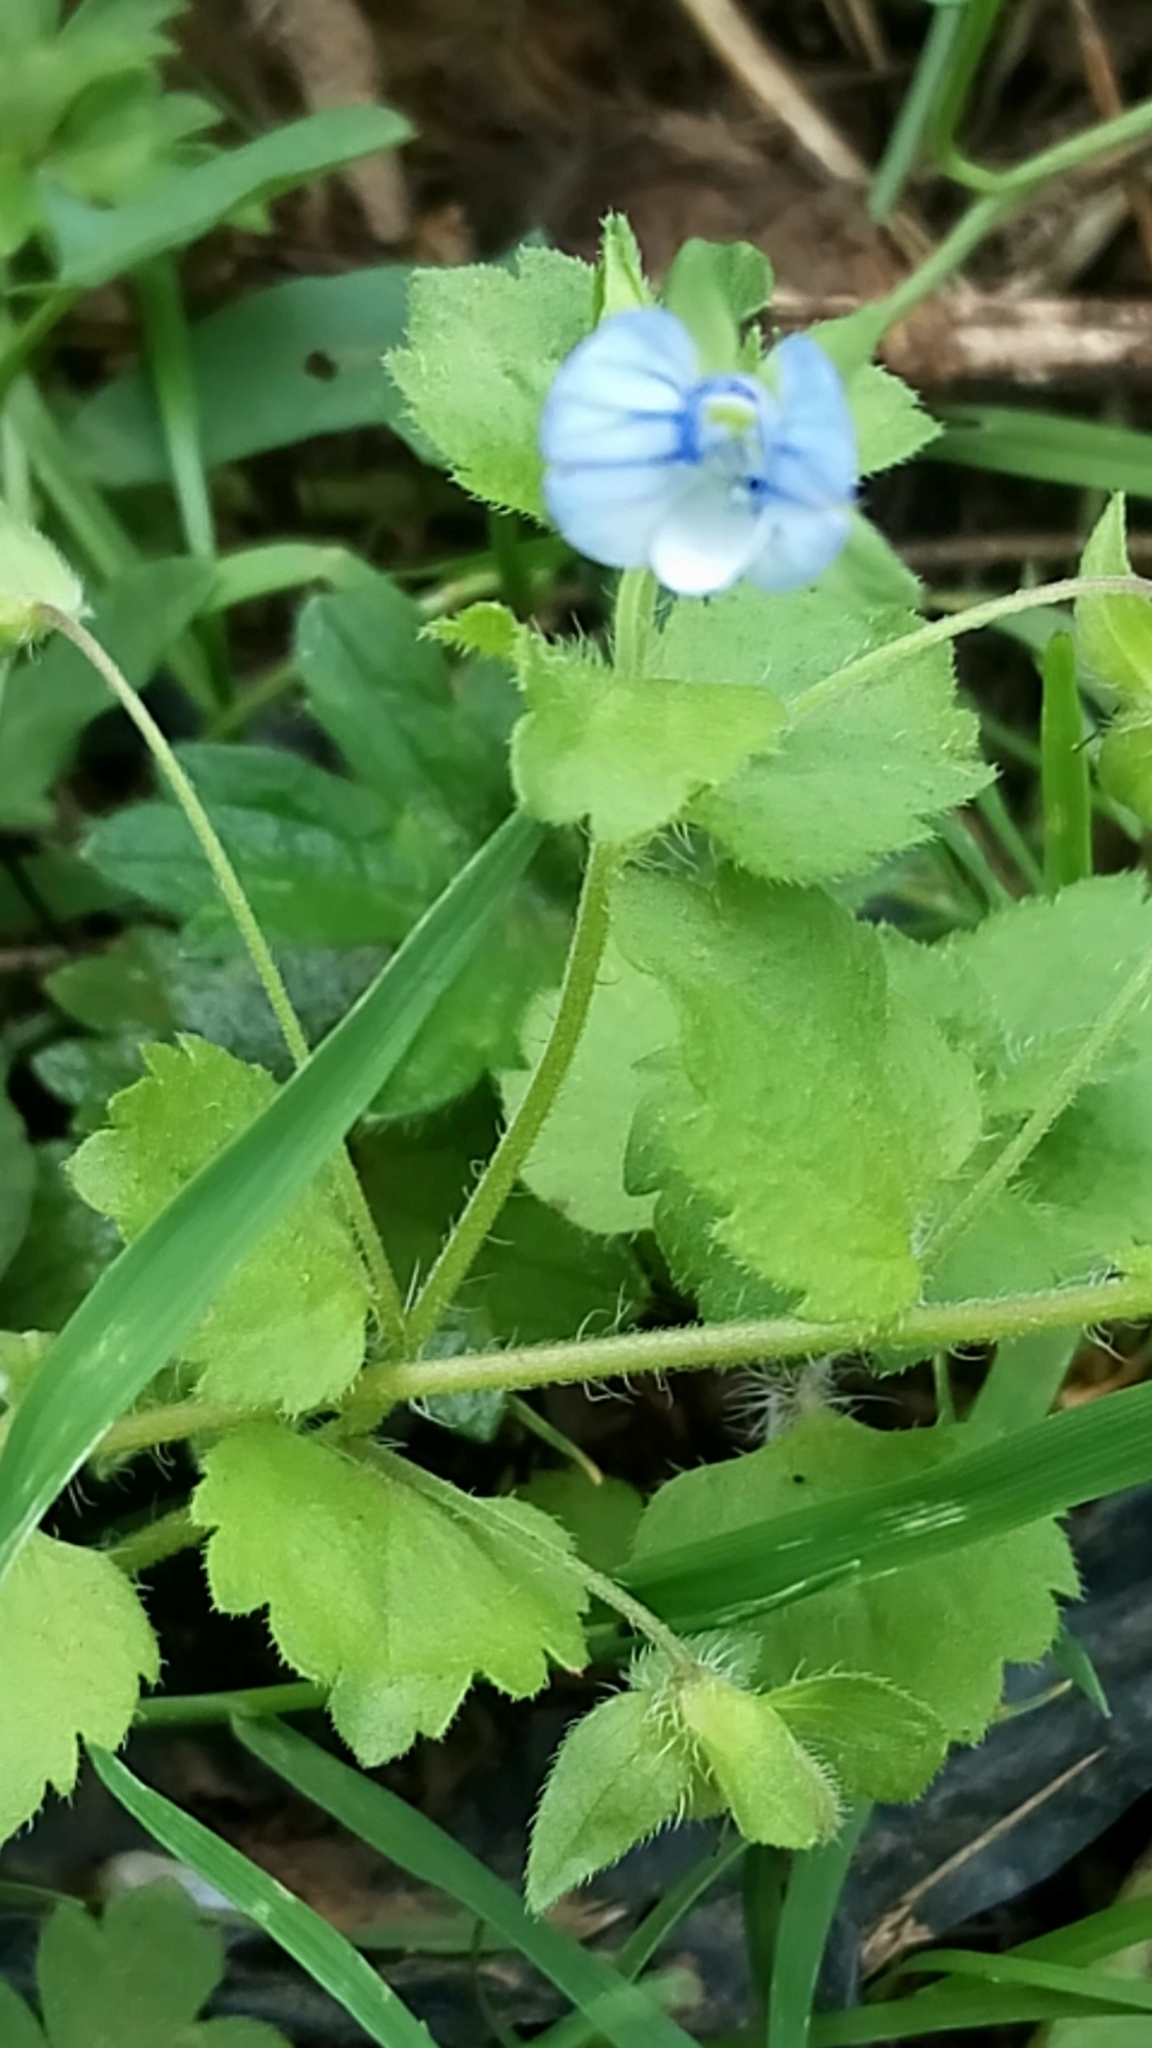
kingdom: Plantae
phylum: Tracheophyta
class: Magnoliopsida
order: Lamiales
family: Plantaginaceae
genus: Veronica
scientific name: Veronica persica
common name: Common field-speedwell
